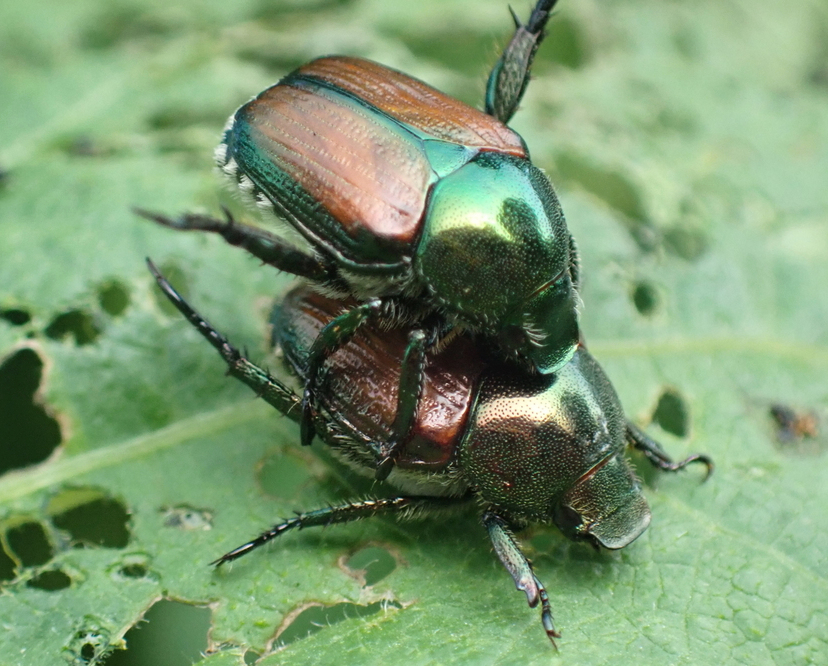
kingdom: Animalia
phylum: Arthropoda
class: Insecta
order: Coleoptera
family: Scarabaeidae
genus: Popillia
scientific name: Popillia japonica
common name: Japanese beetle
